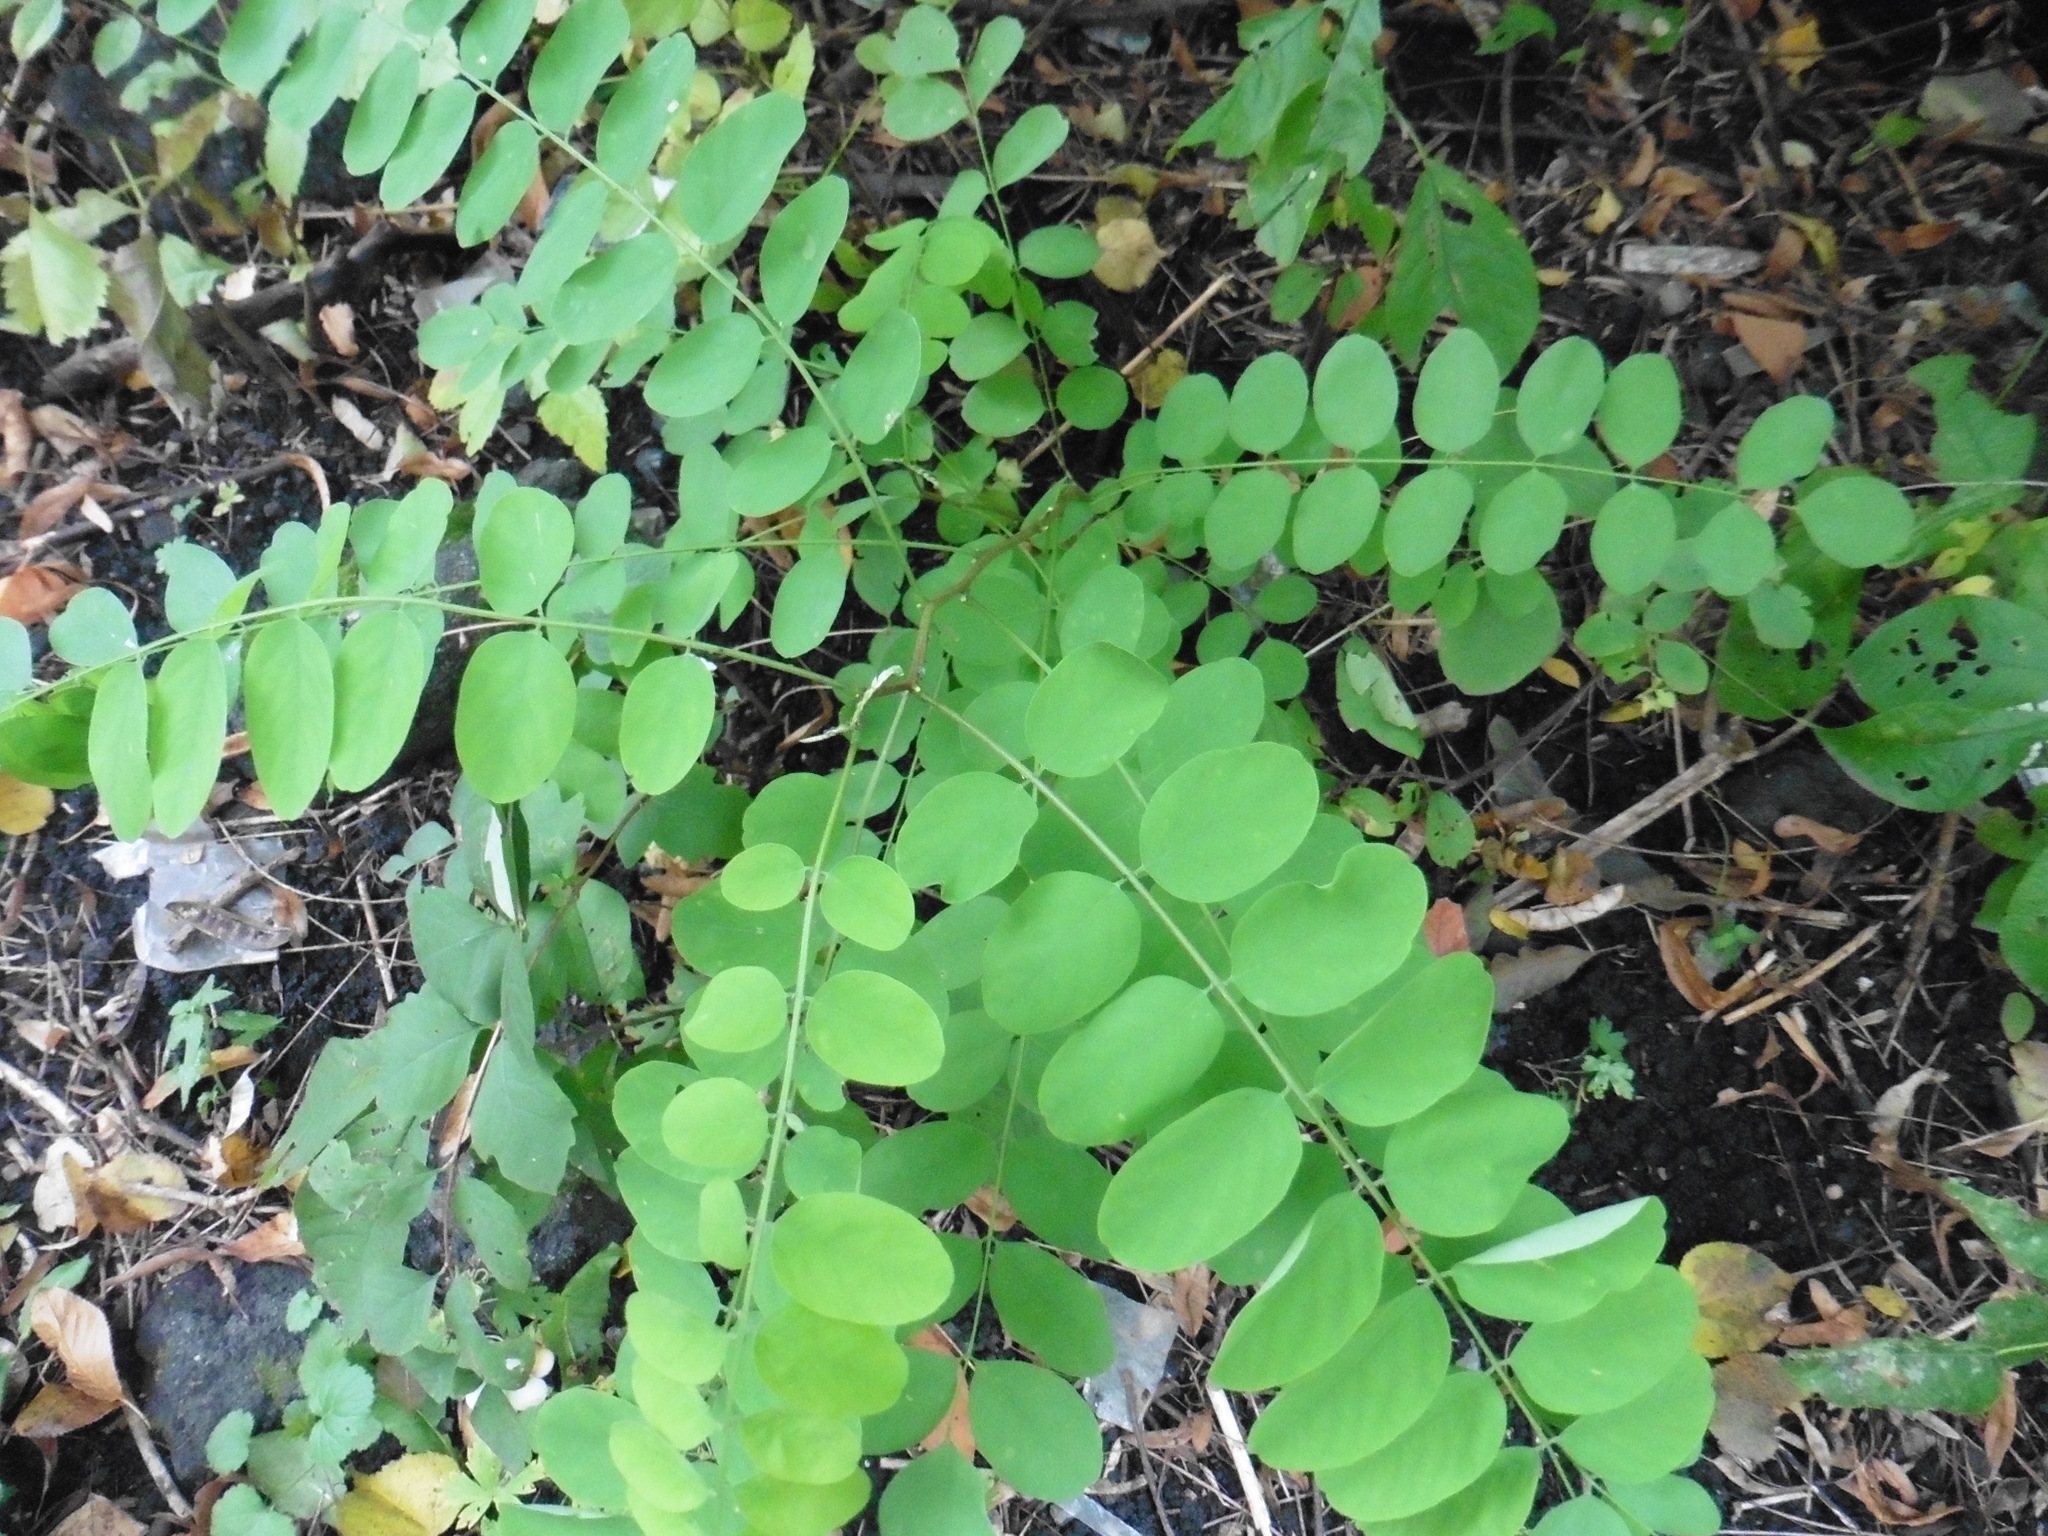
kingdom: Plantae
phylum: Tracheophyta
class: Magnoliopsida
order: Fabales
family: Fabaceae
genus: Robinia
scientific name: Robinia pseudoacacia
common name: Black locust
